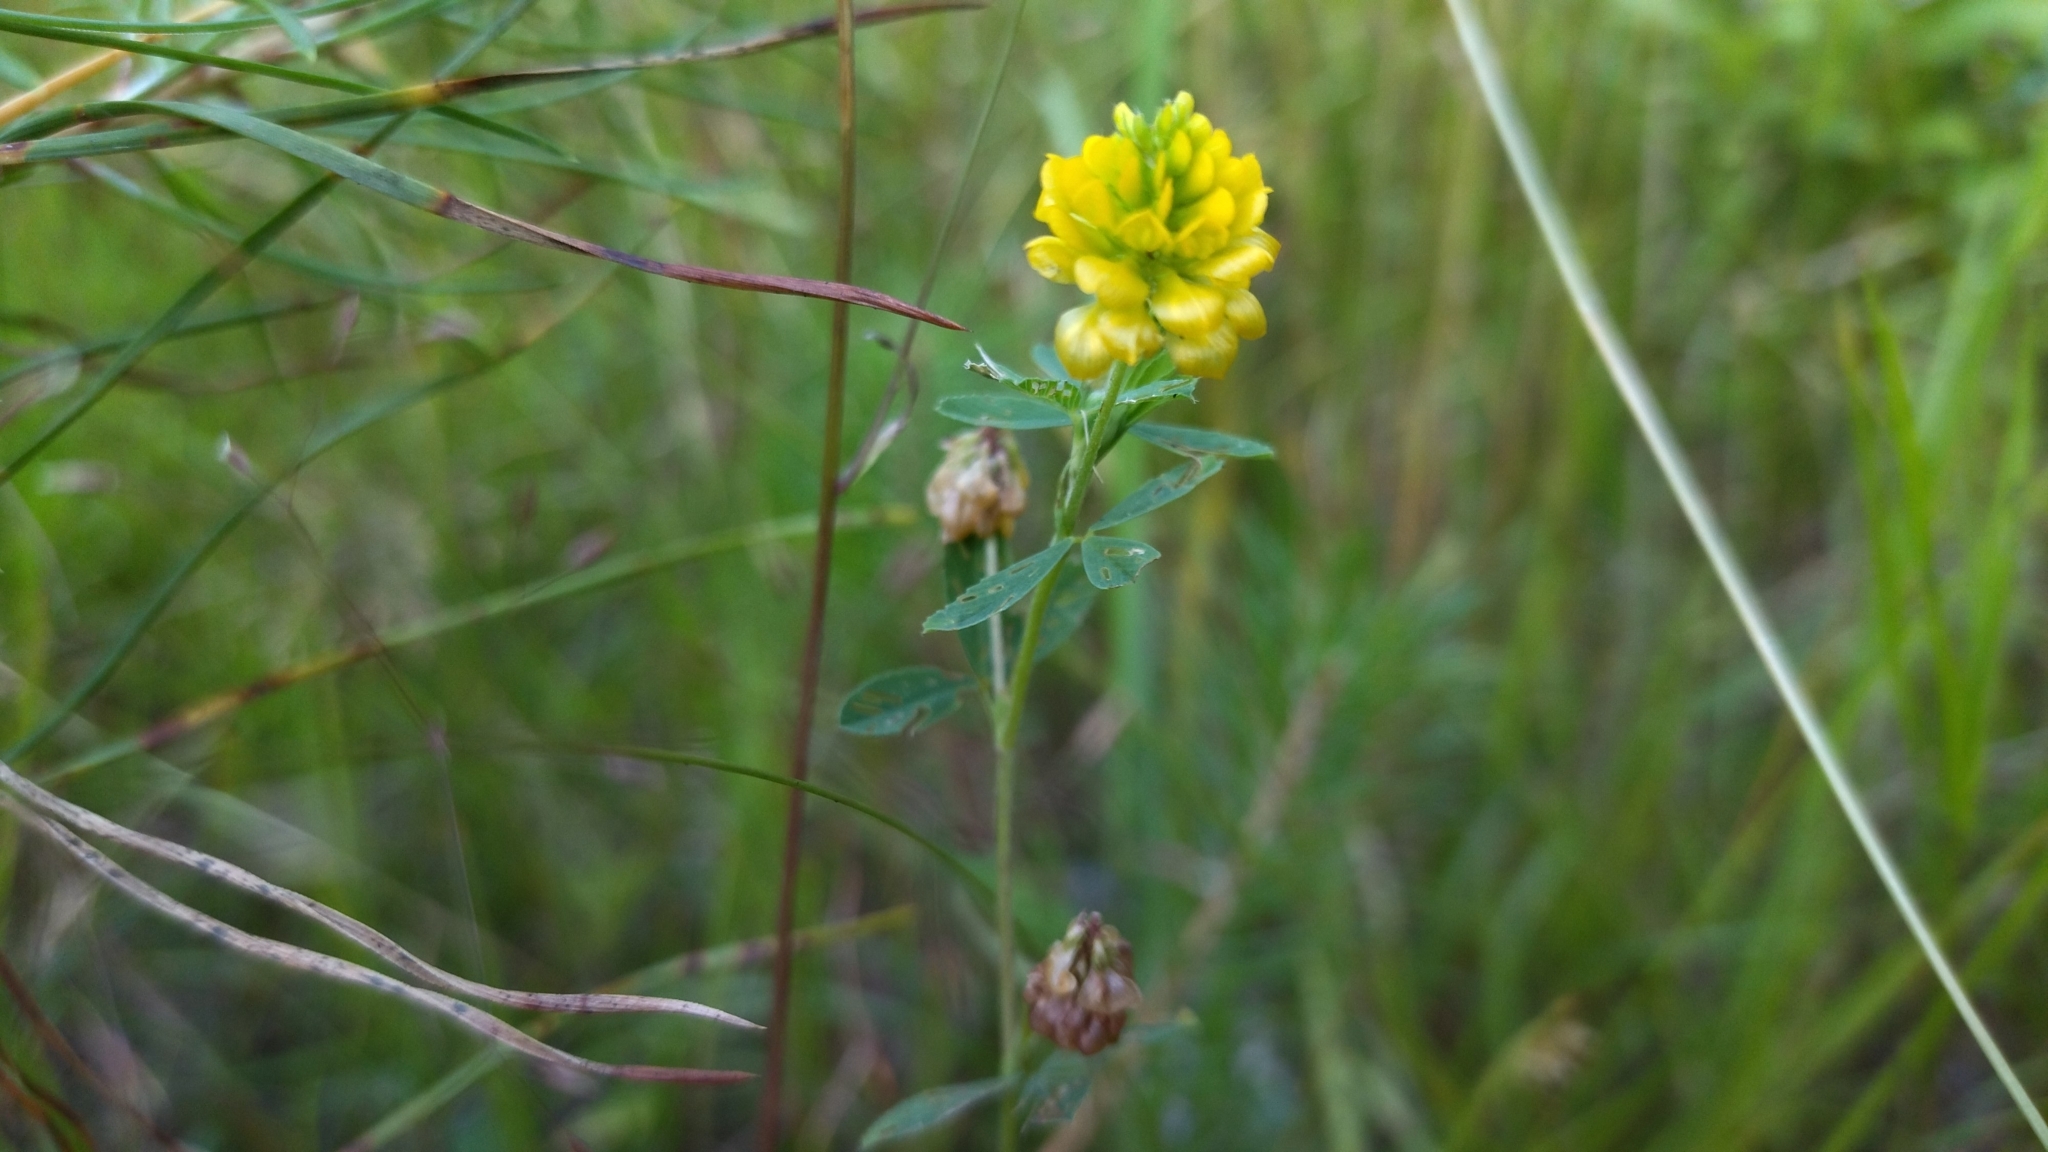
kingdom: Plantae
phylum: Tracheophyta
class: Magnoliopsida
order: Fabales
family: Fabaceae
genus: Trifolium
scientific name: Trifolium aureum
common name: Golden clover
